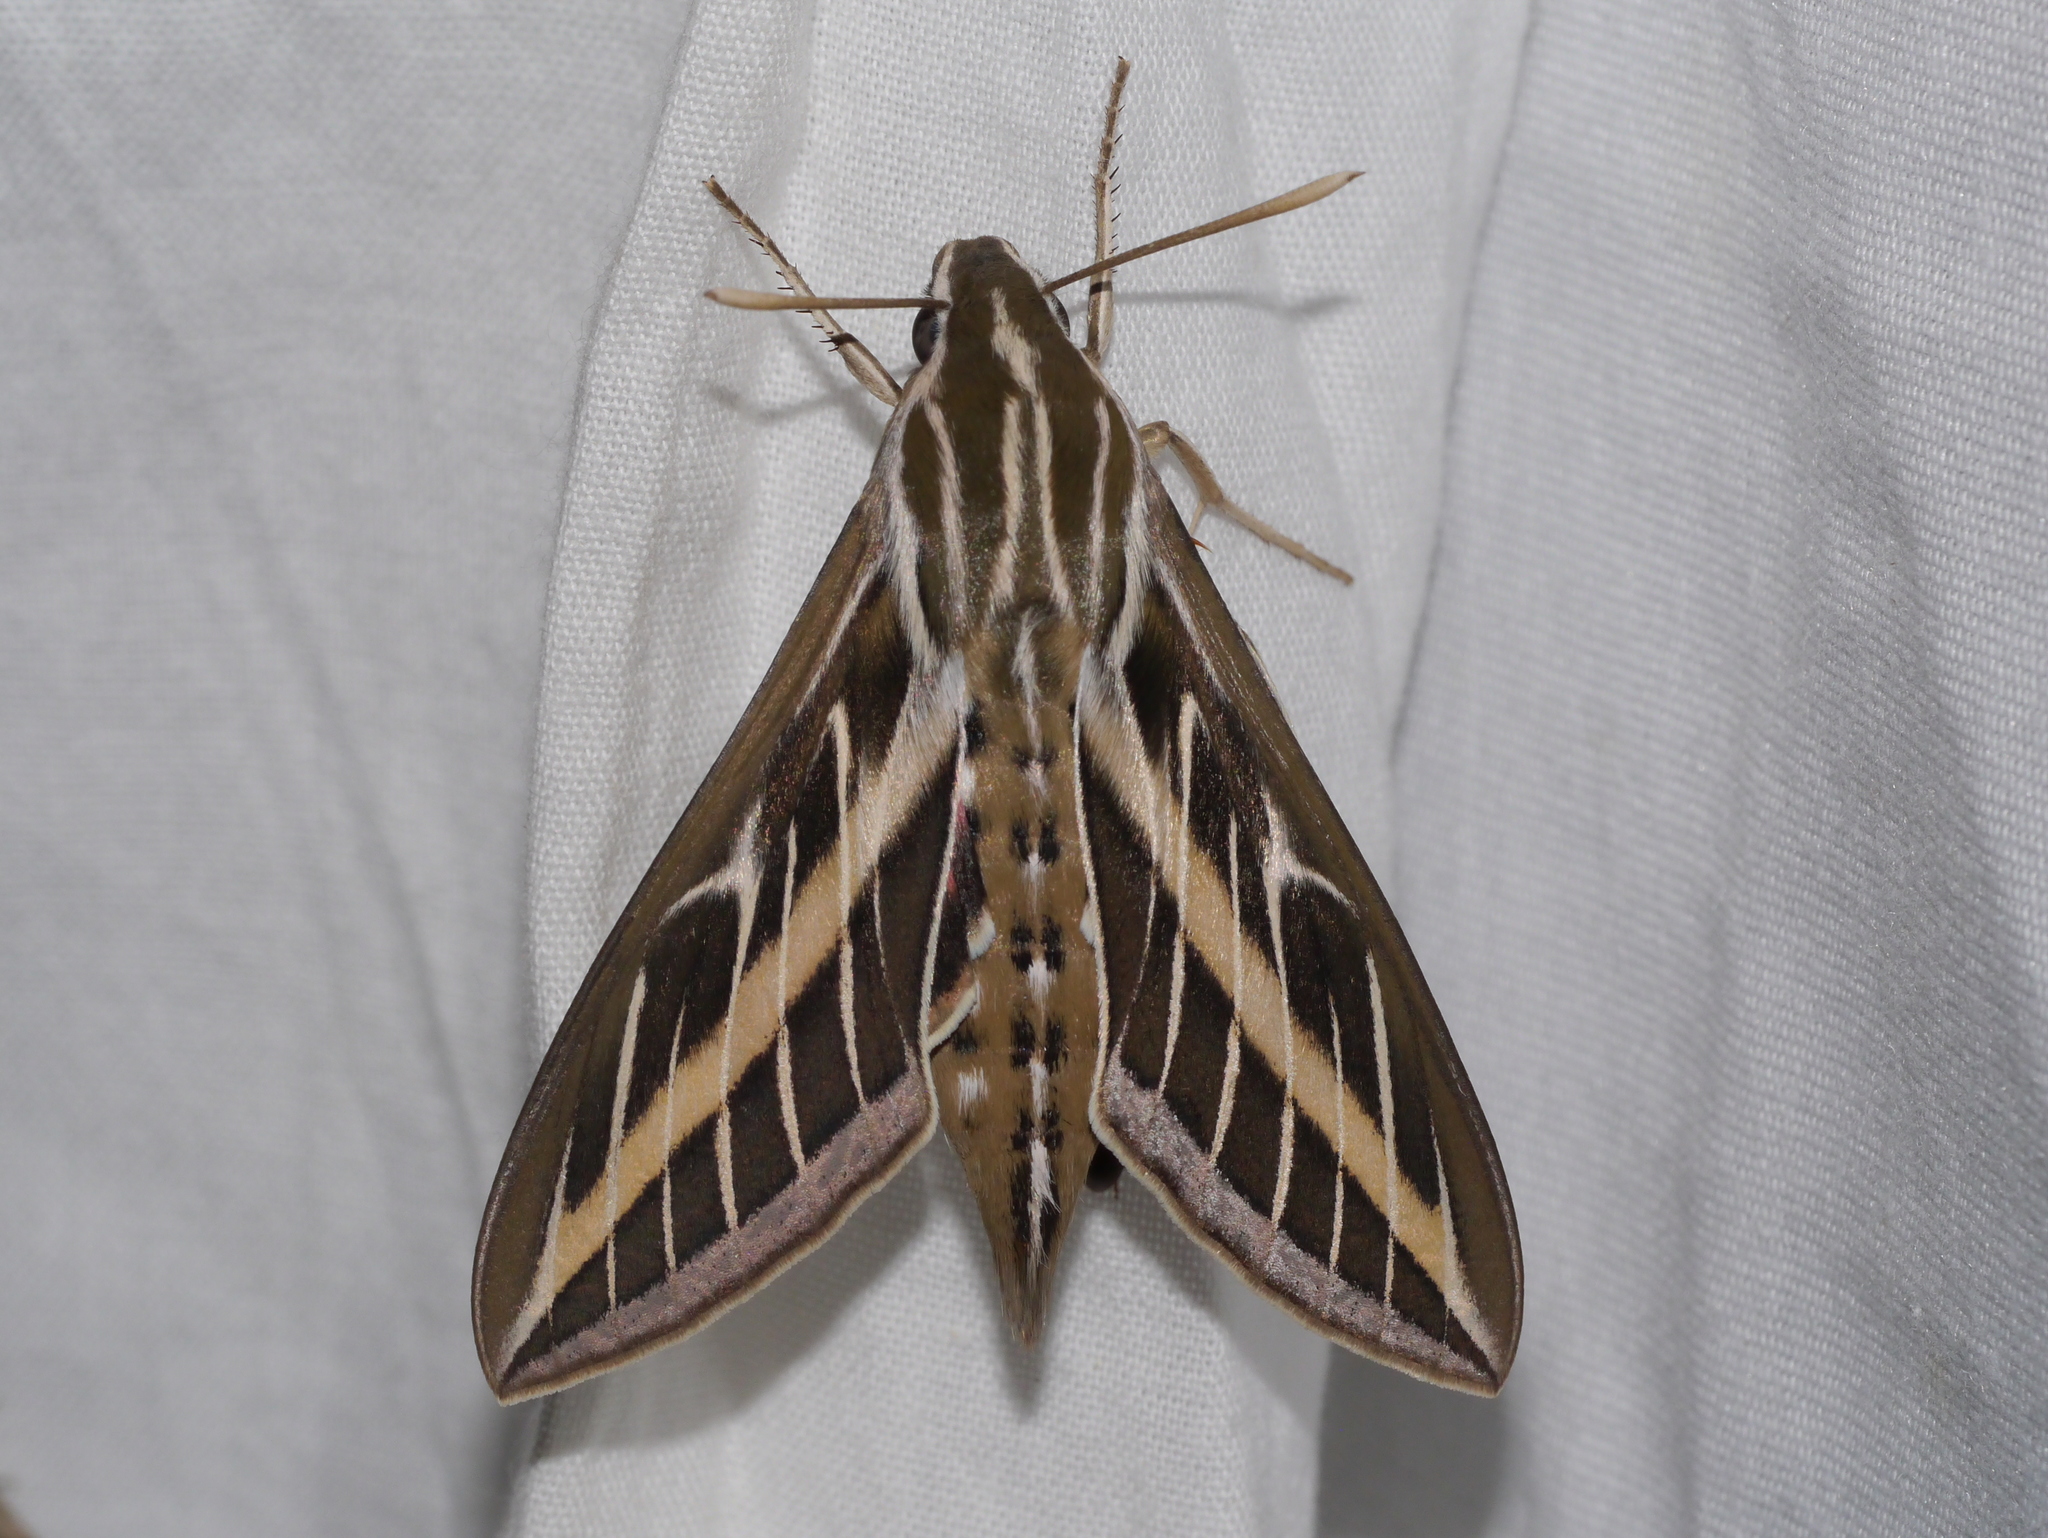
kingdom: Animalia
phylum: Arthropoda
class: Insecta
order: Lepidoptera
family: Sphingidae
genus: Hyles
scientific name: Hyles lineata
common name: White-lined sphinx
